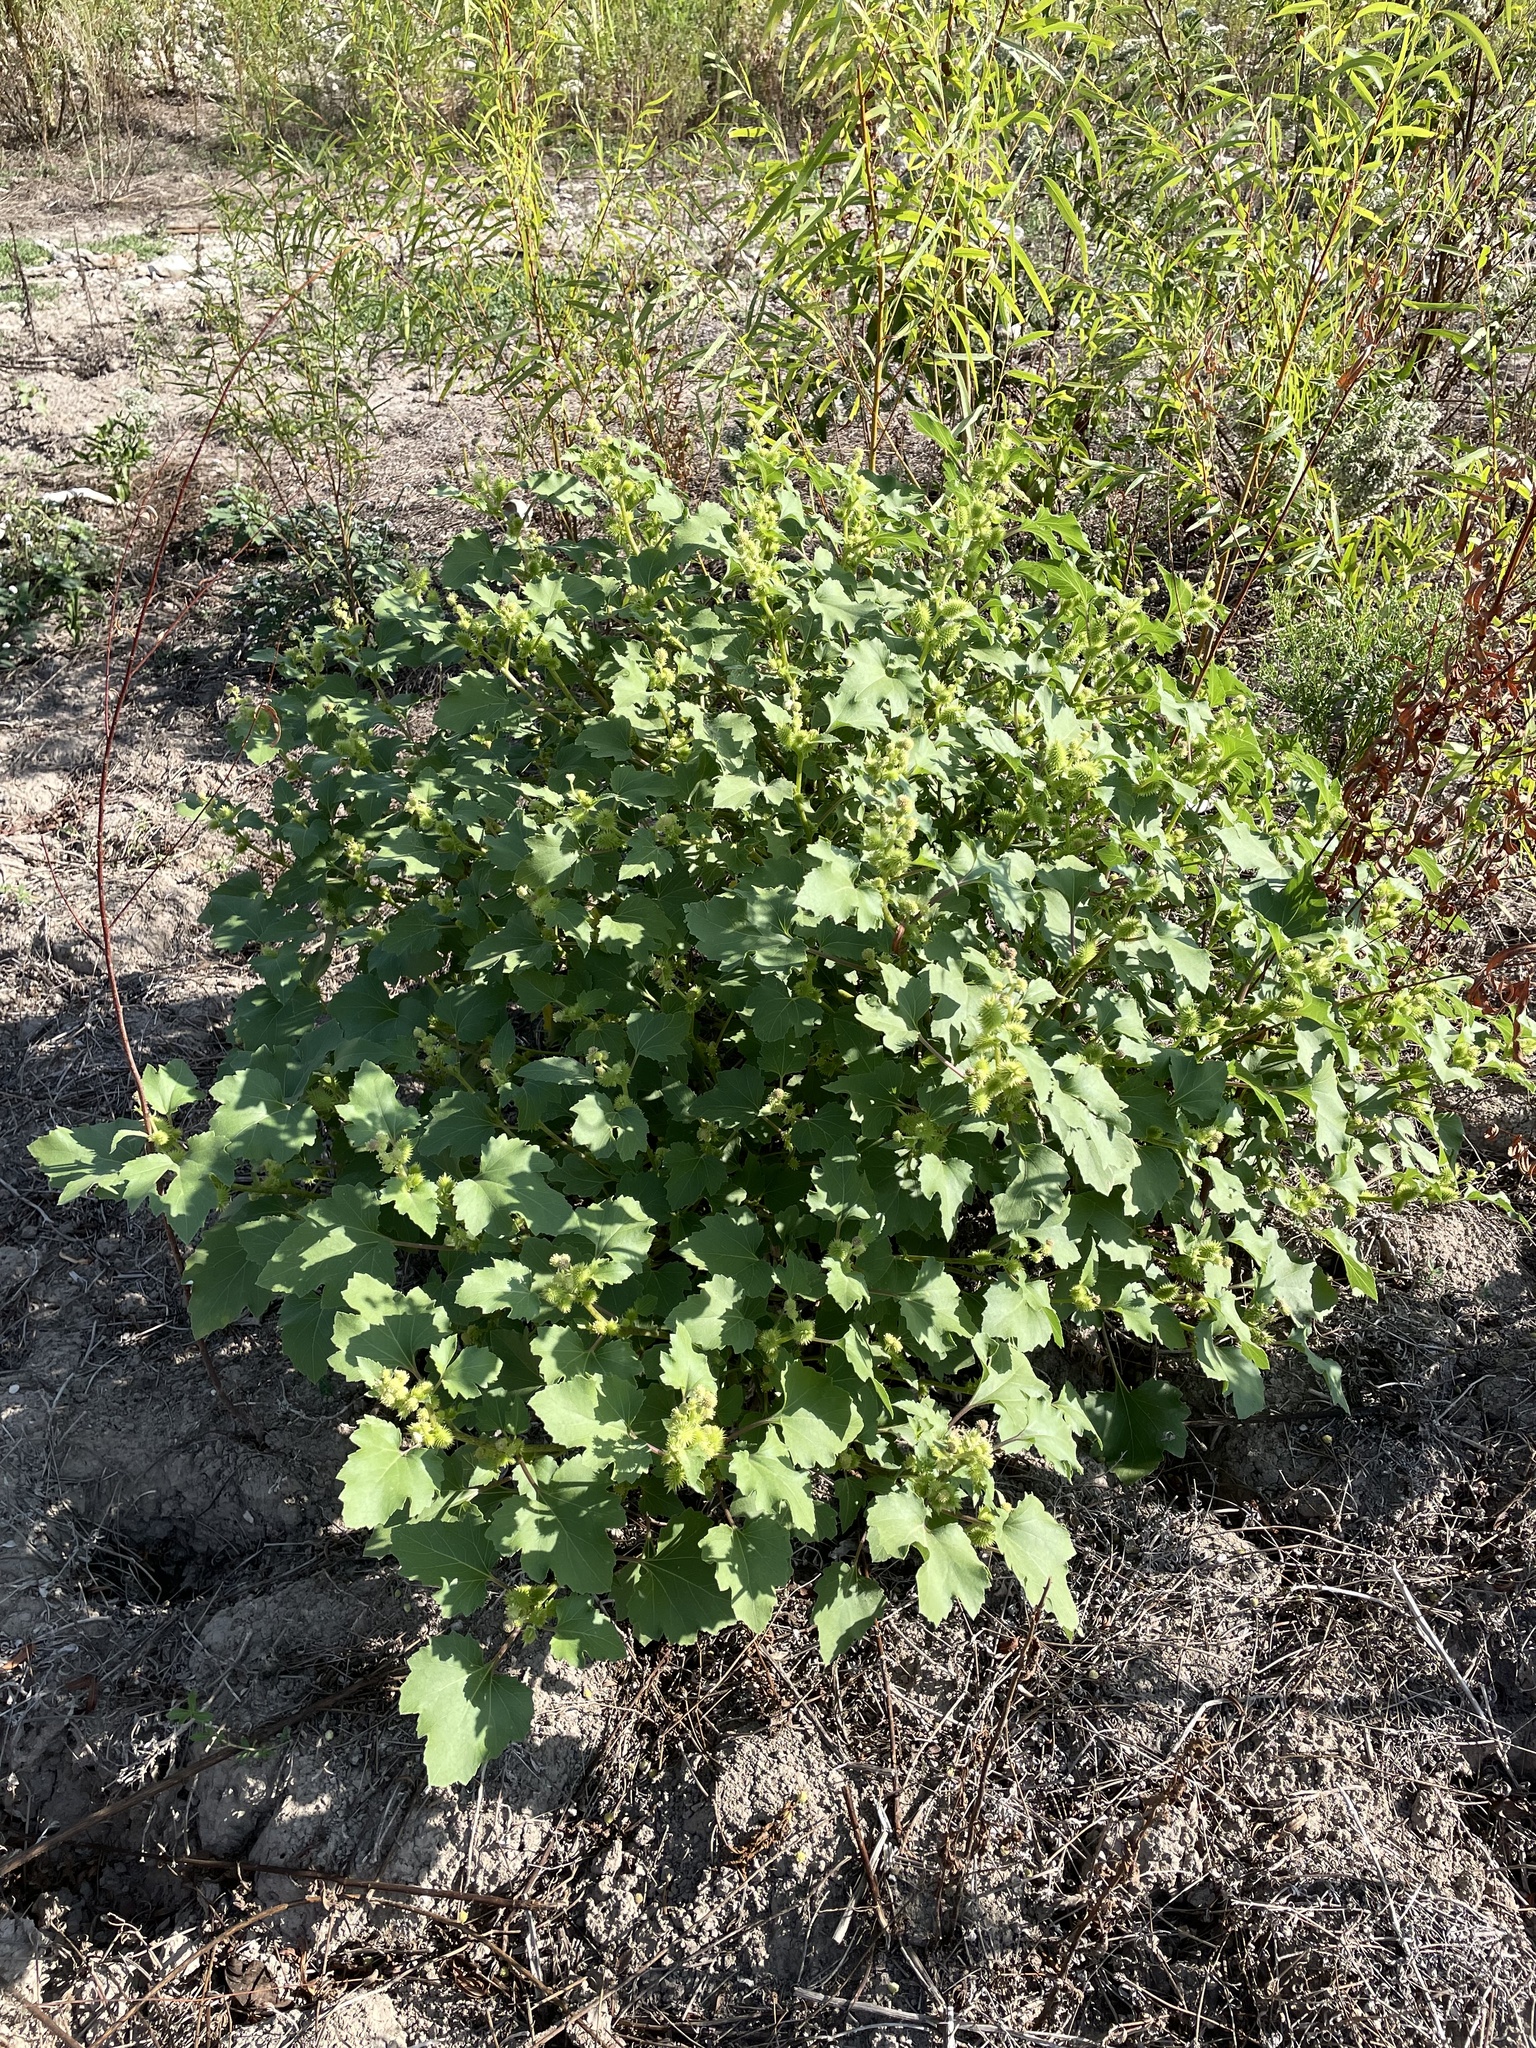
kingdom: Plantae
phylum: Tracheophyta
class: Magnoliopsida
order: Asterales
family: Asteraceae
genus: Xanthium
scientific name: Xanthium strumarium
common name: Rough cocklebur
